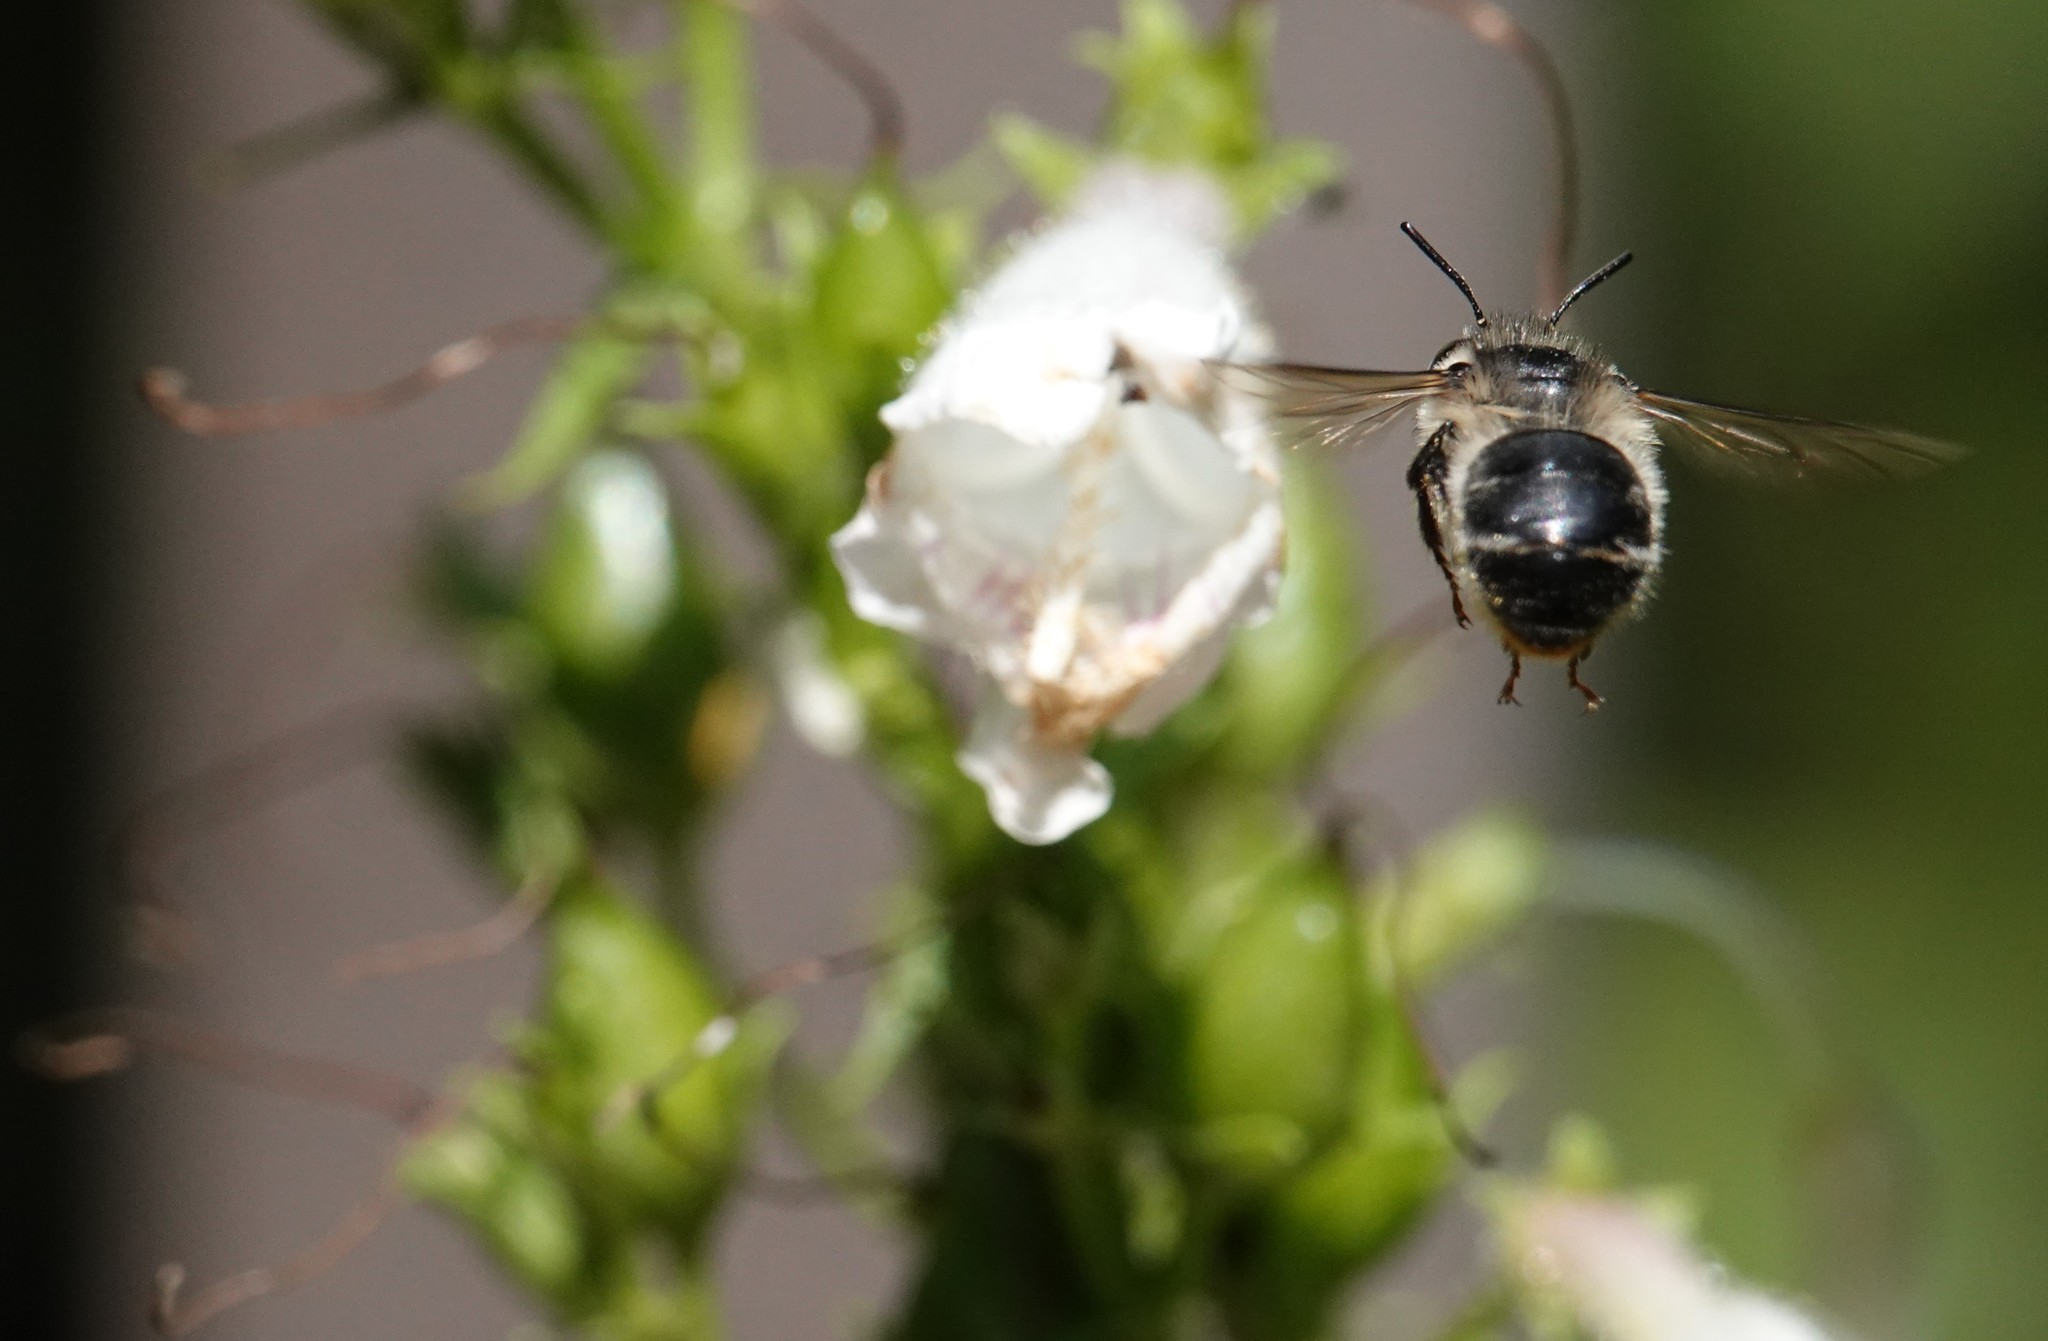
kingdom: Animalia
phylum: Arthropoda
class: Insecta
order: Hymenoptera
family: Apidae
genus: Anthophora
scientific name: Anthophora terminalis
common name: Orange-tipped wood-digger bee
